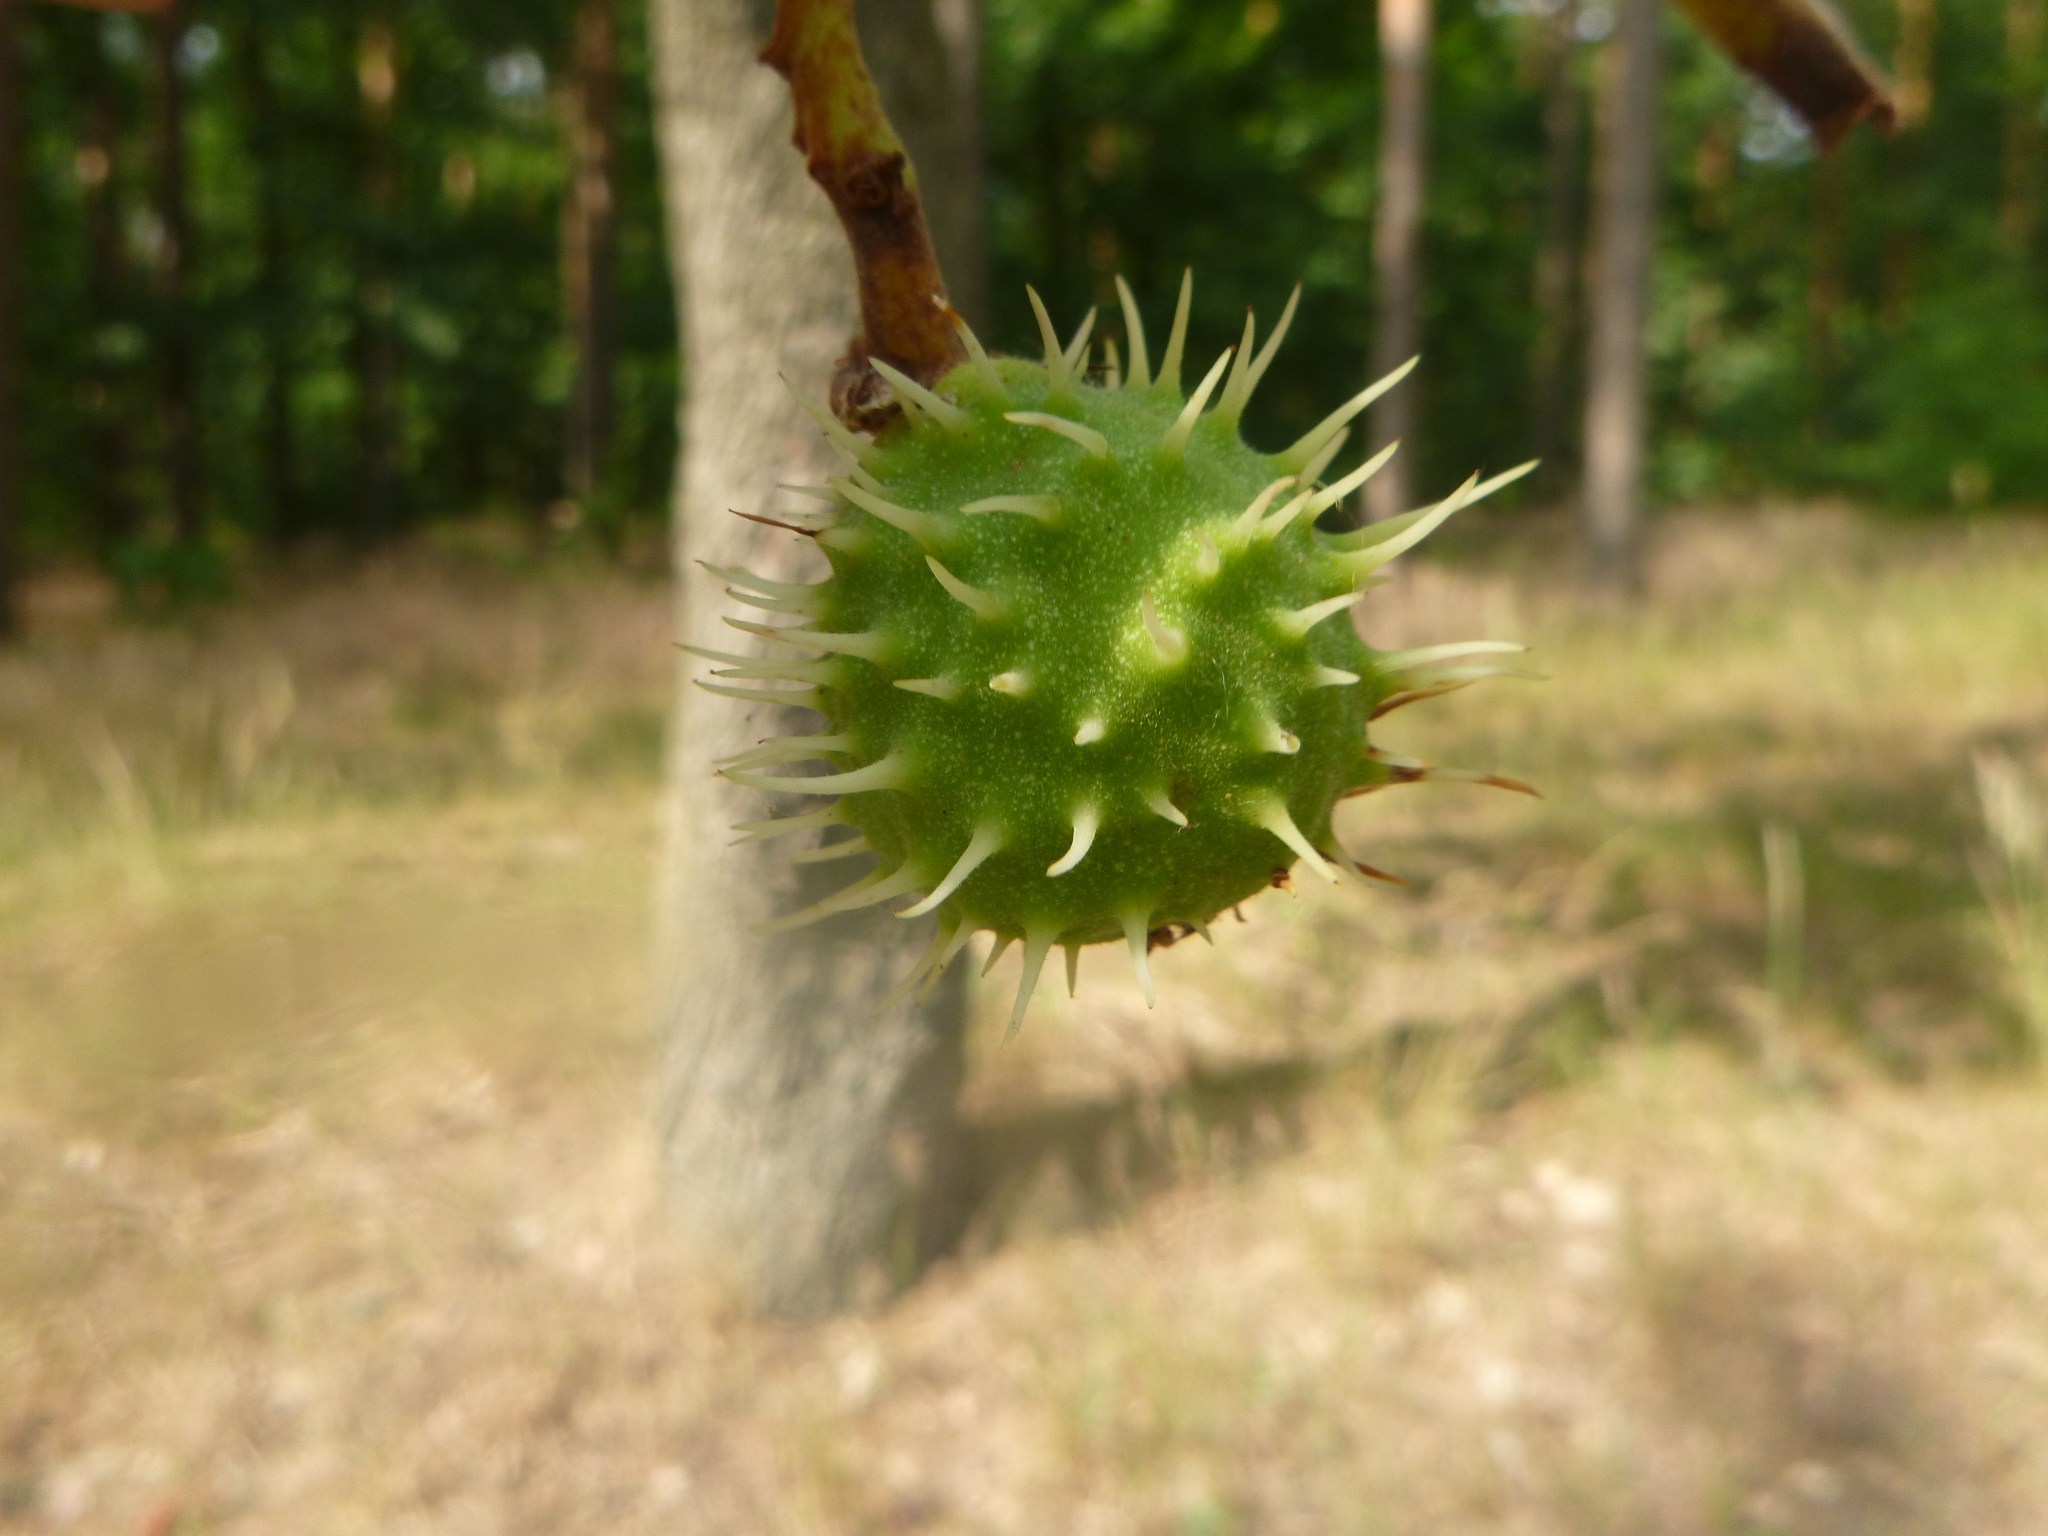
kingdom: Plantae
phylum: Tracheophyta
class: Magnoliopsida
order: Sapindales
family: Sapindaceae
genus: Aesculus
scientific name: Aesculus hippocastanum
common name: Horse-chestnut
